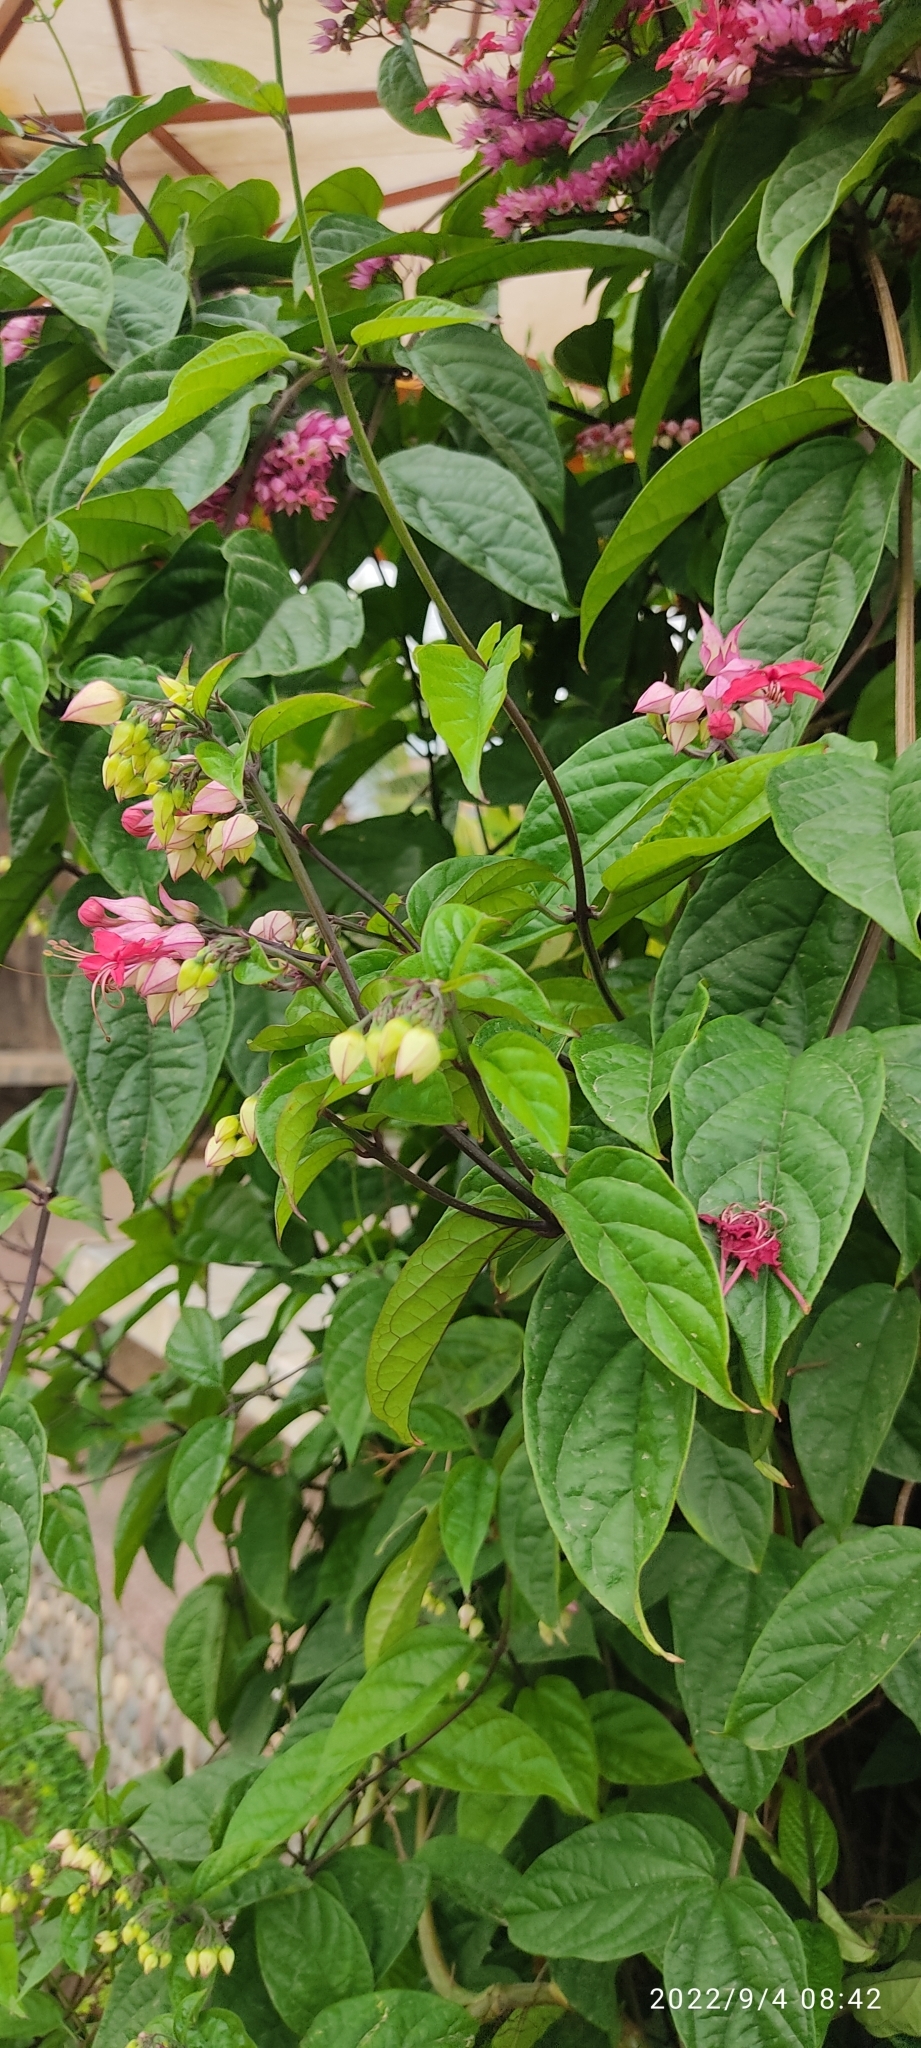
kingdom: Plantae
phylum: Tracheophyta
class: Magnoliopsida
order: Lamiales
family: Lamiaceae
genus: Clerodendrum
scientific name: Clerodendrum speciosum
